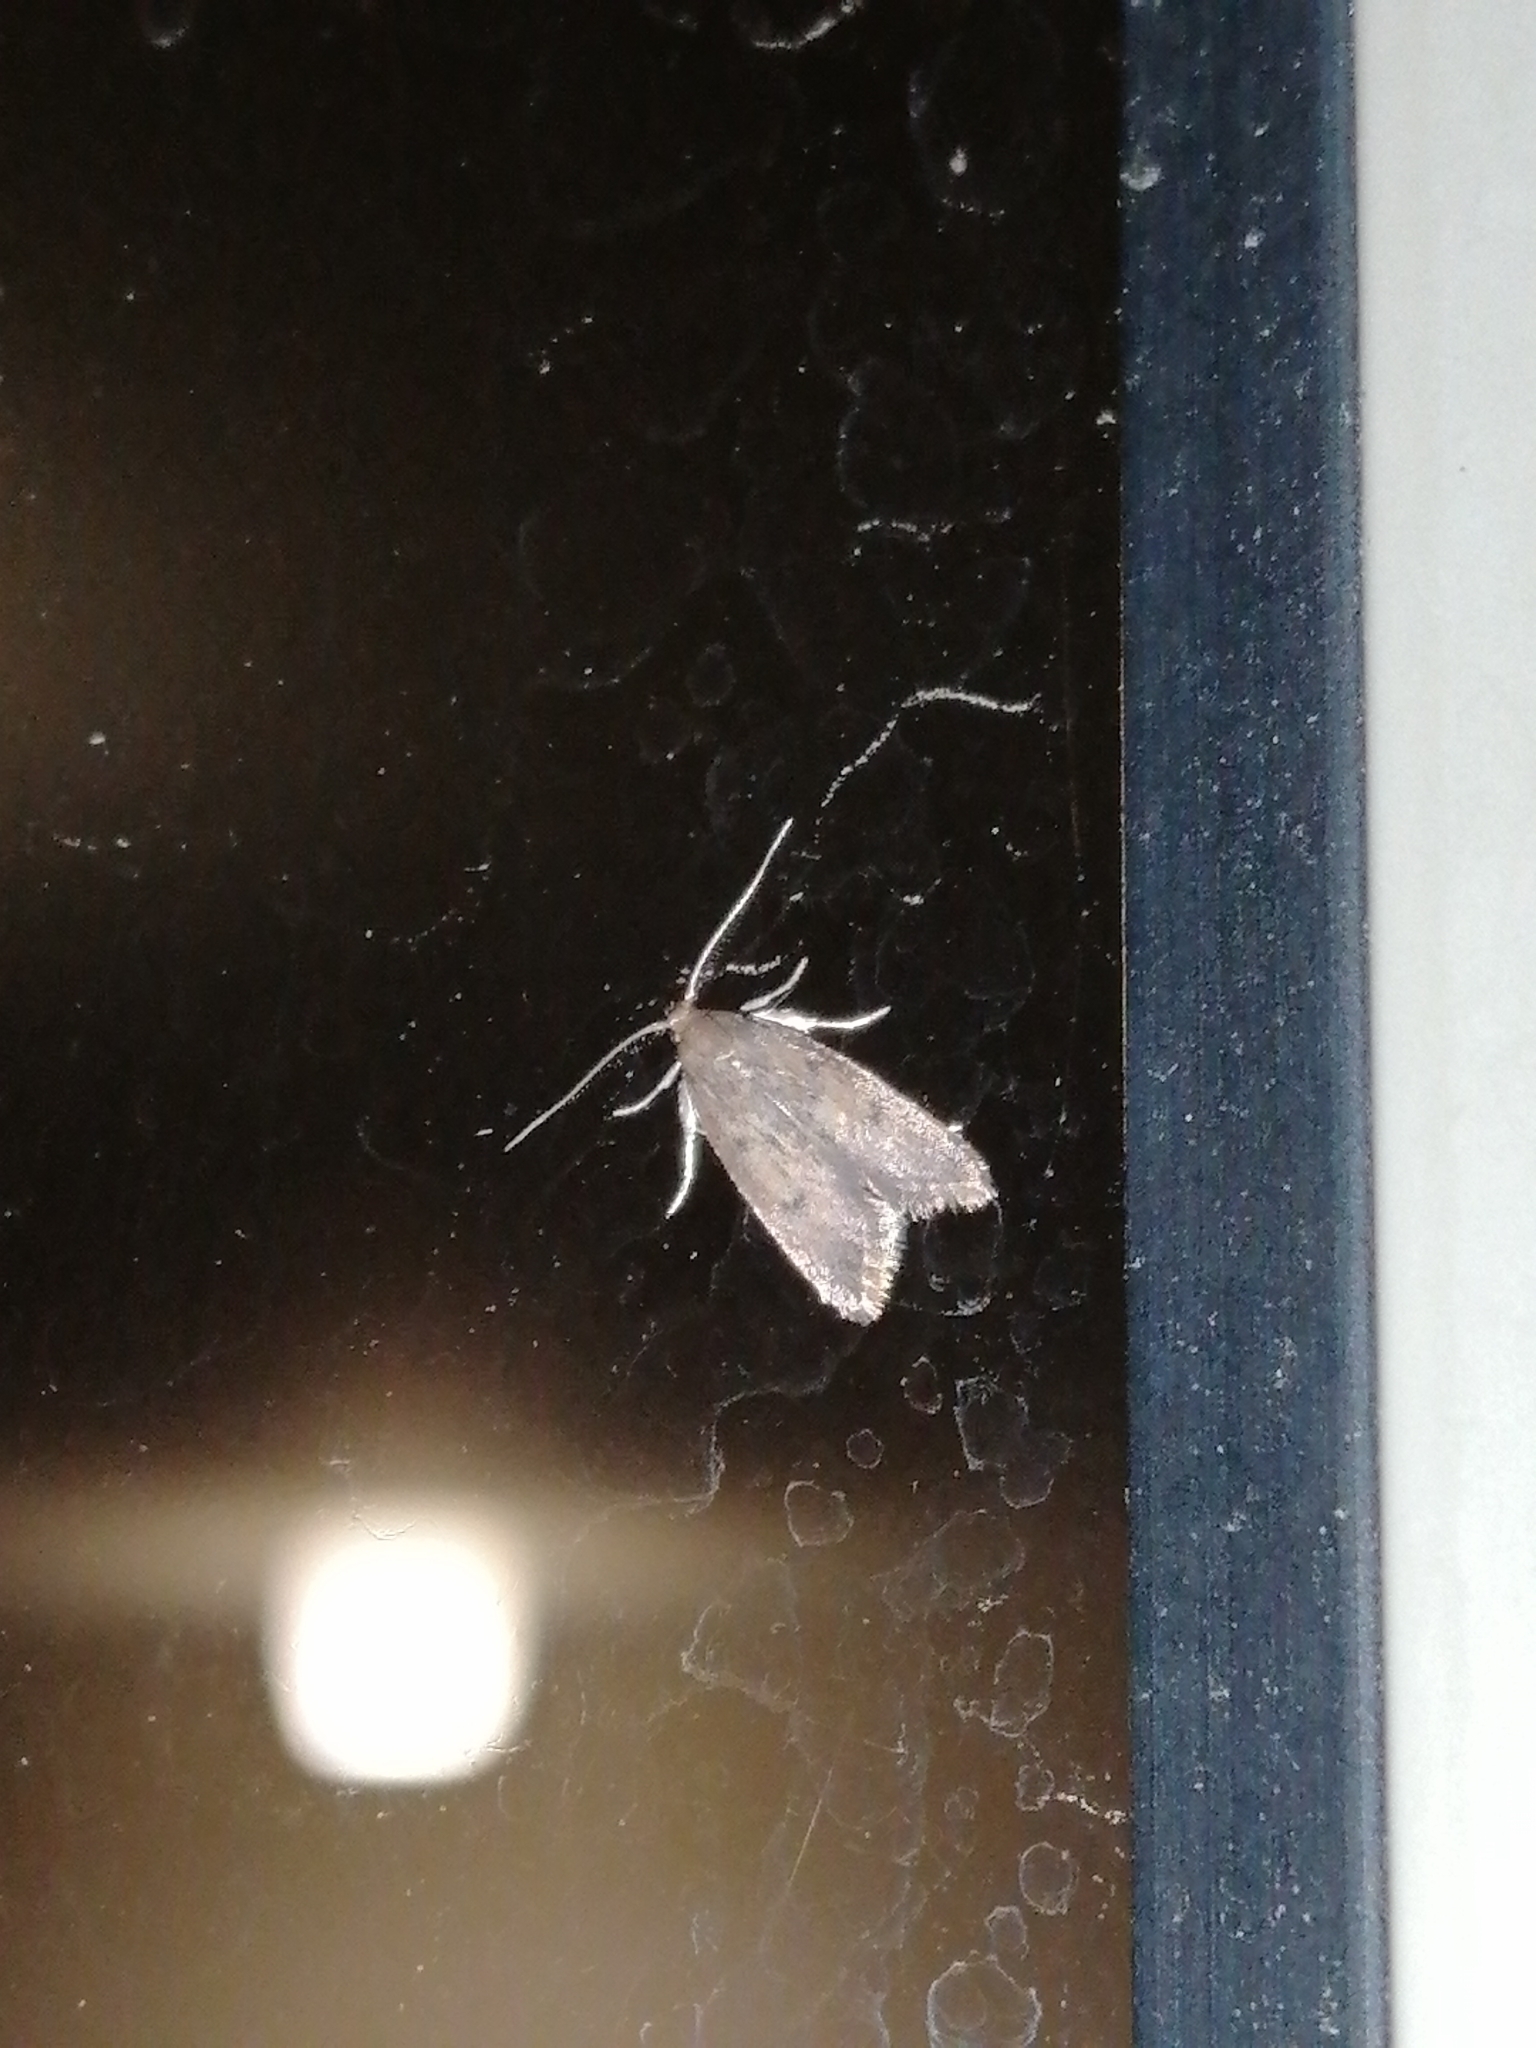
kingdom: Animalia
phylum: Arthropoda
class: Insecta
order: Lepidoptera
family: Oecophoridae
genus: Tachystola
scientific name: Tachystola acroxantha
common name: Ruddy streak
